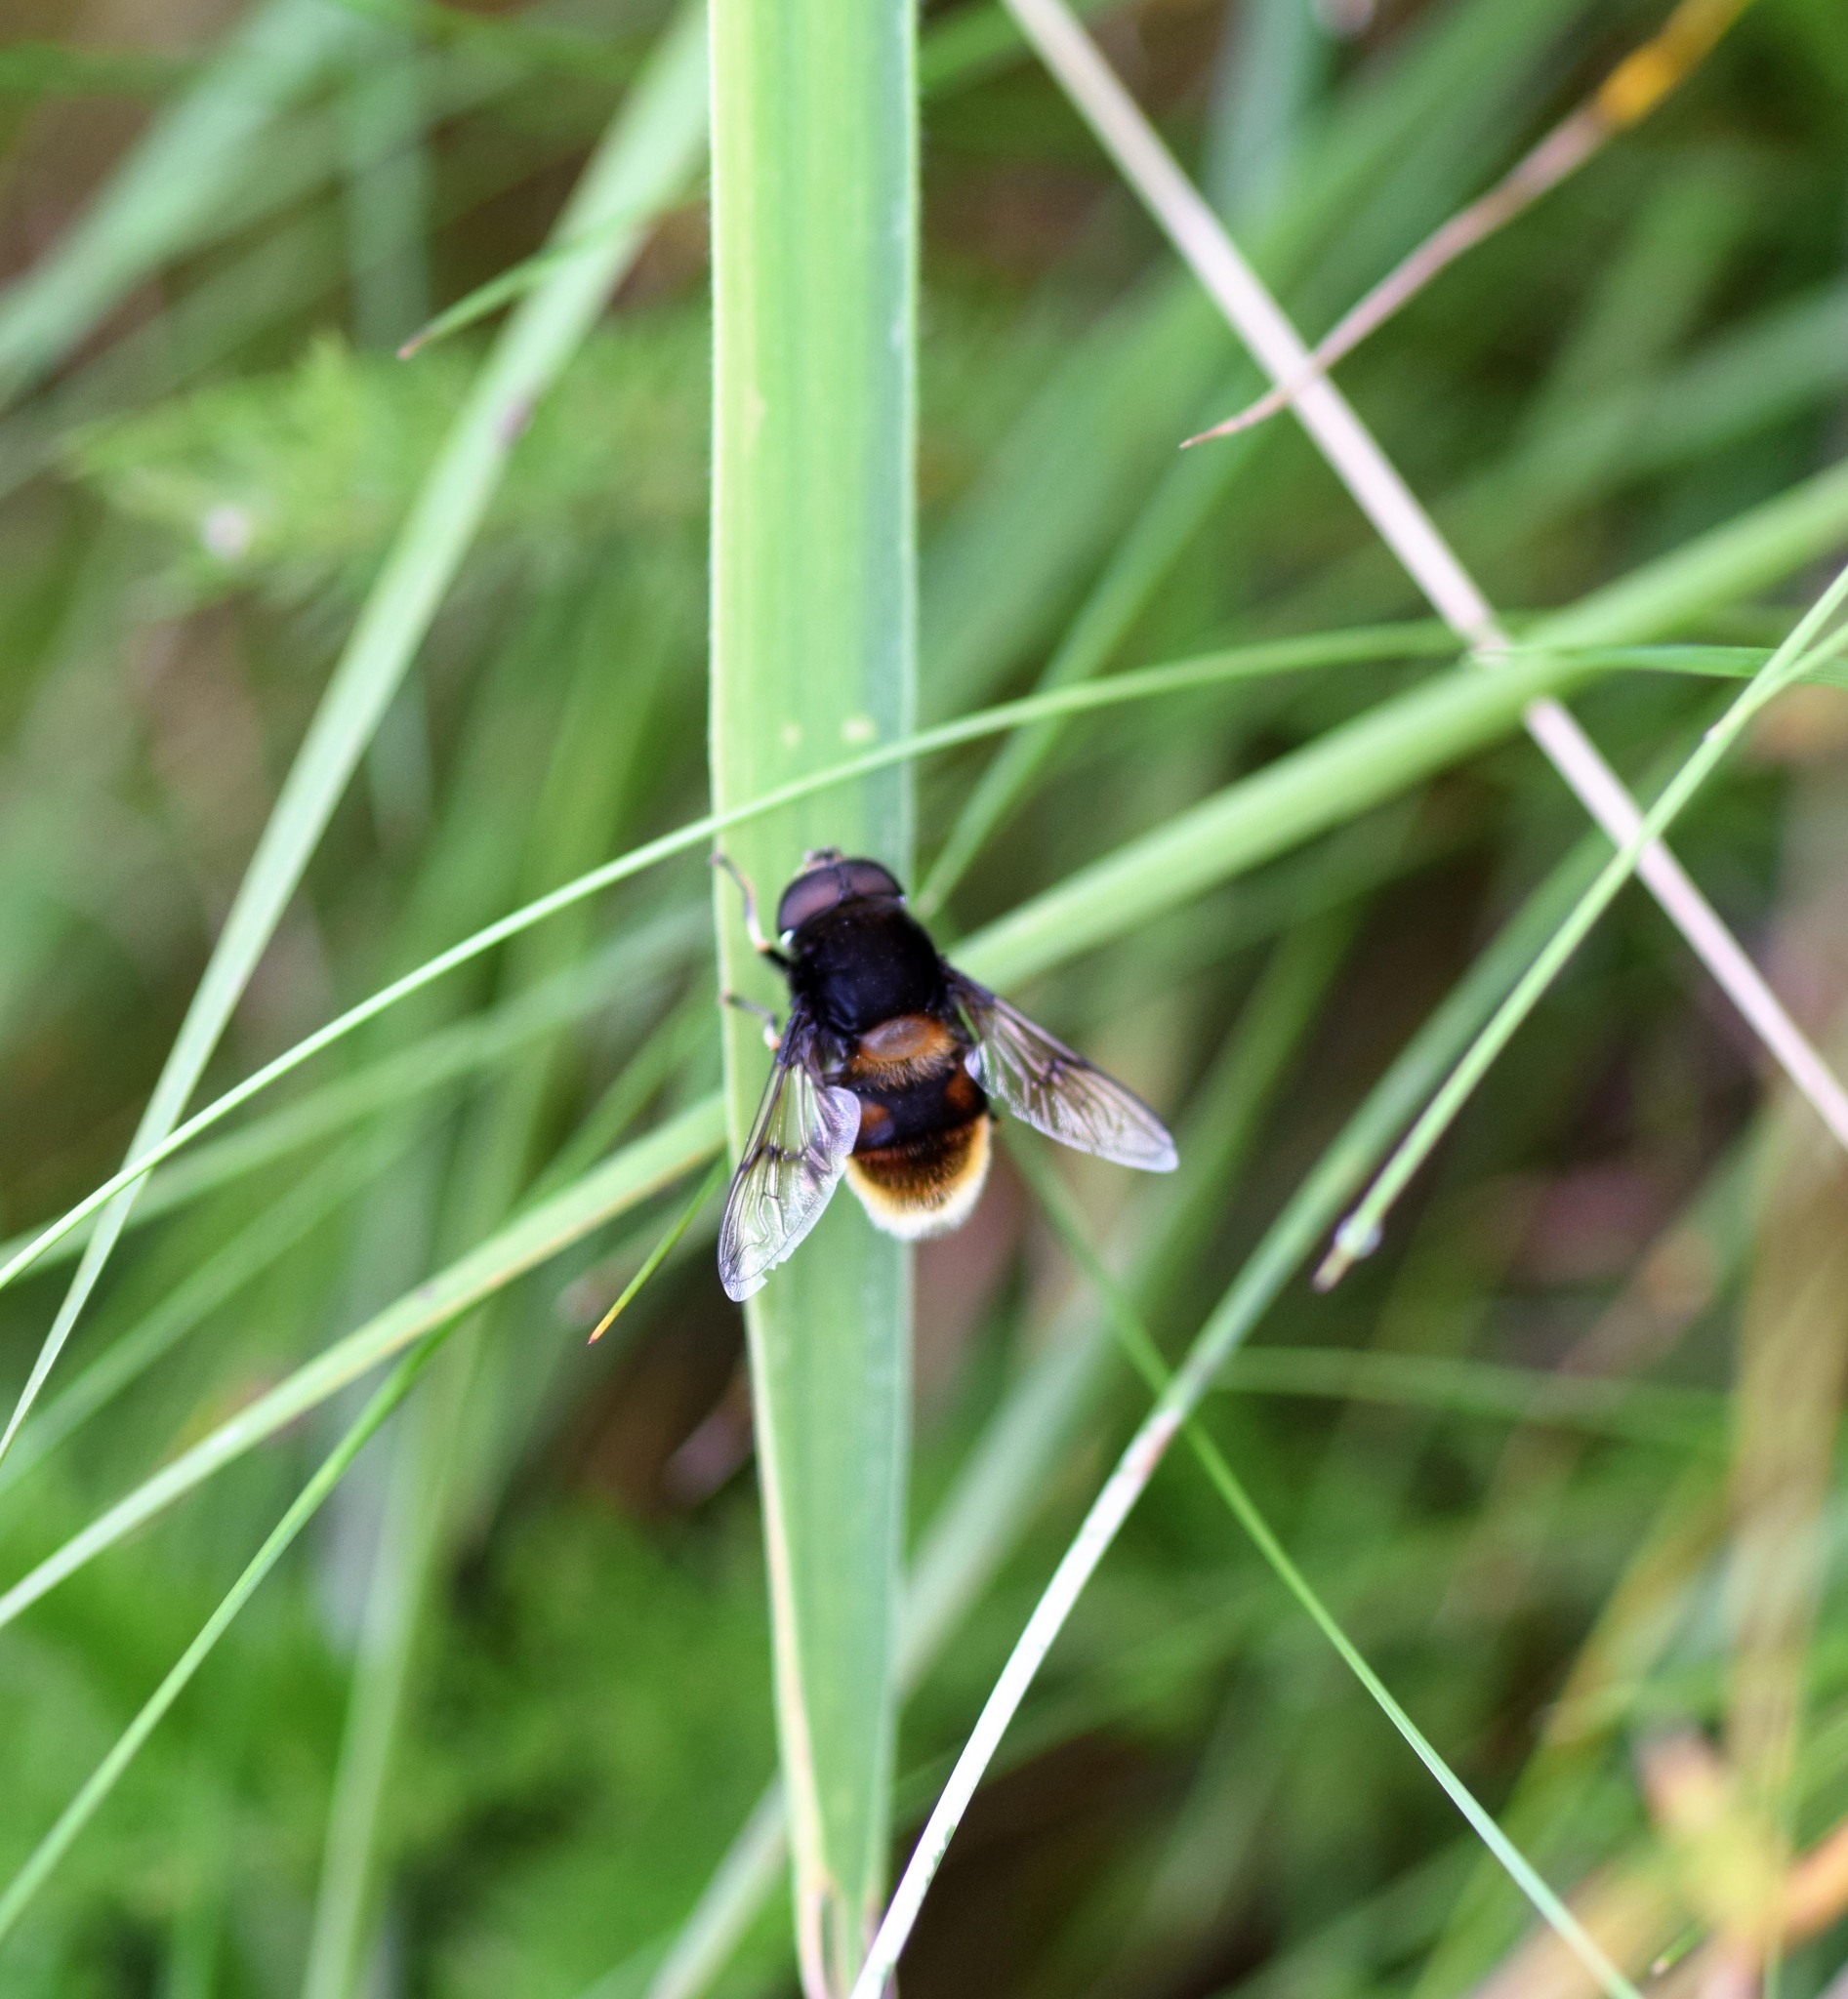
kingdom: Animalia
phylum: Arthropoda
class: Insecta
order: Diptera
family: Syrphidae
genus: Eristalis
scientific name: Eristalis intricaria
